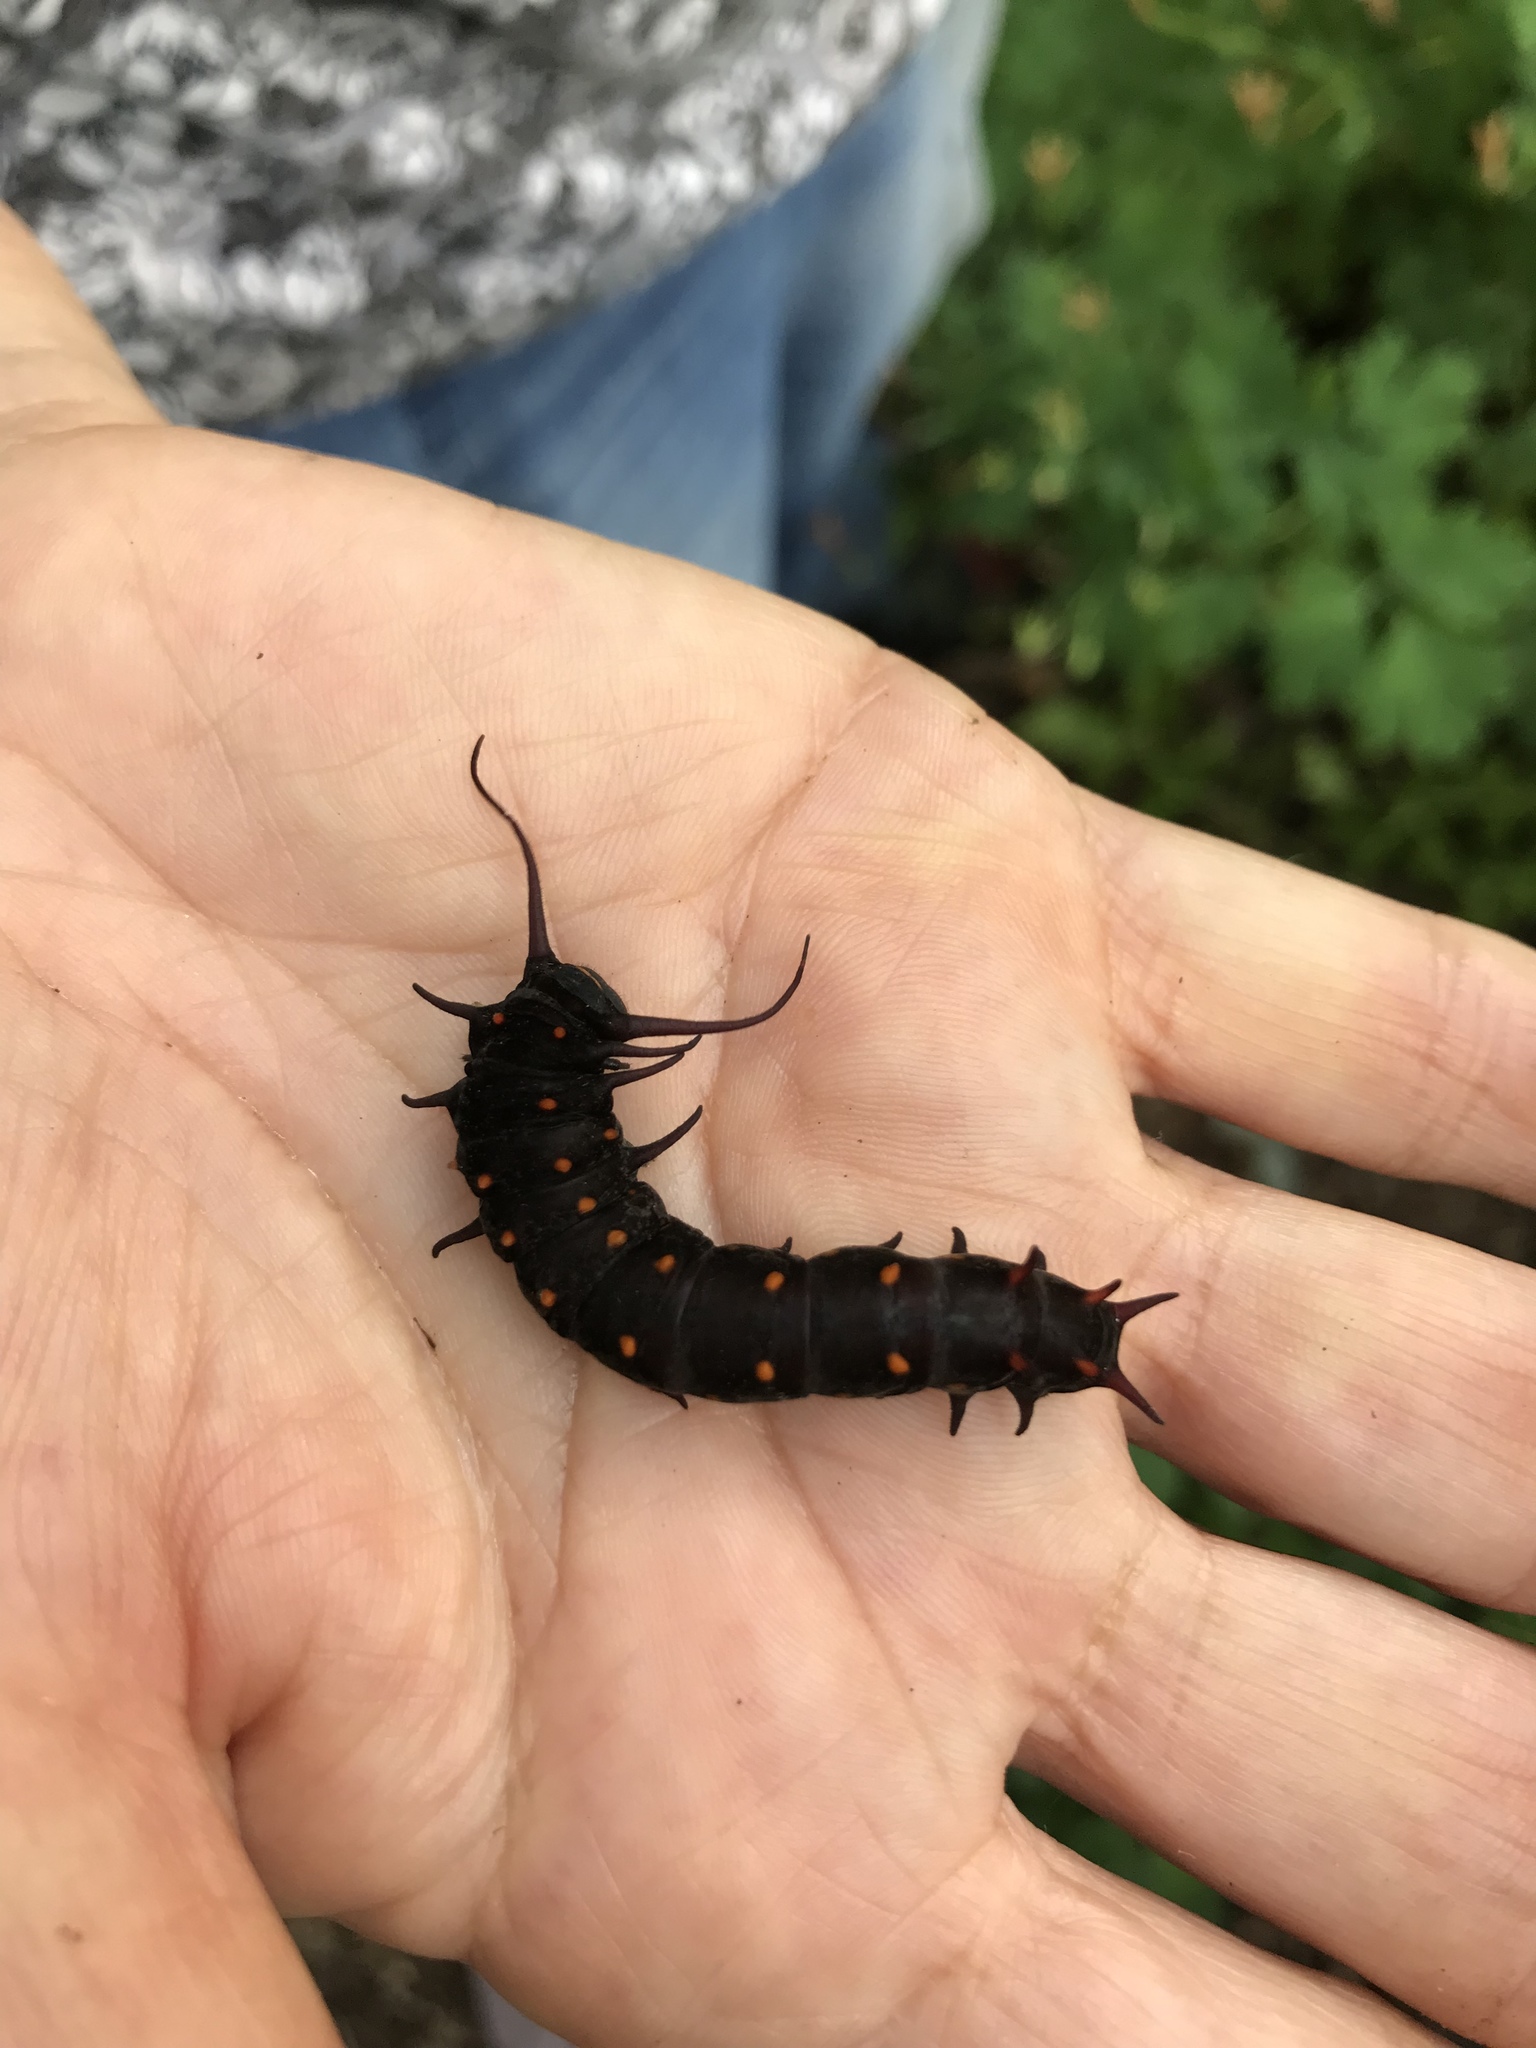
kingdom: Animalia
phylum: Arthropoda
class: Insecta
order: Lepidoptera
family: Papilionidae
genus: Battus
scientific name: Battus philenor
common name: Pipevine swallowtail
